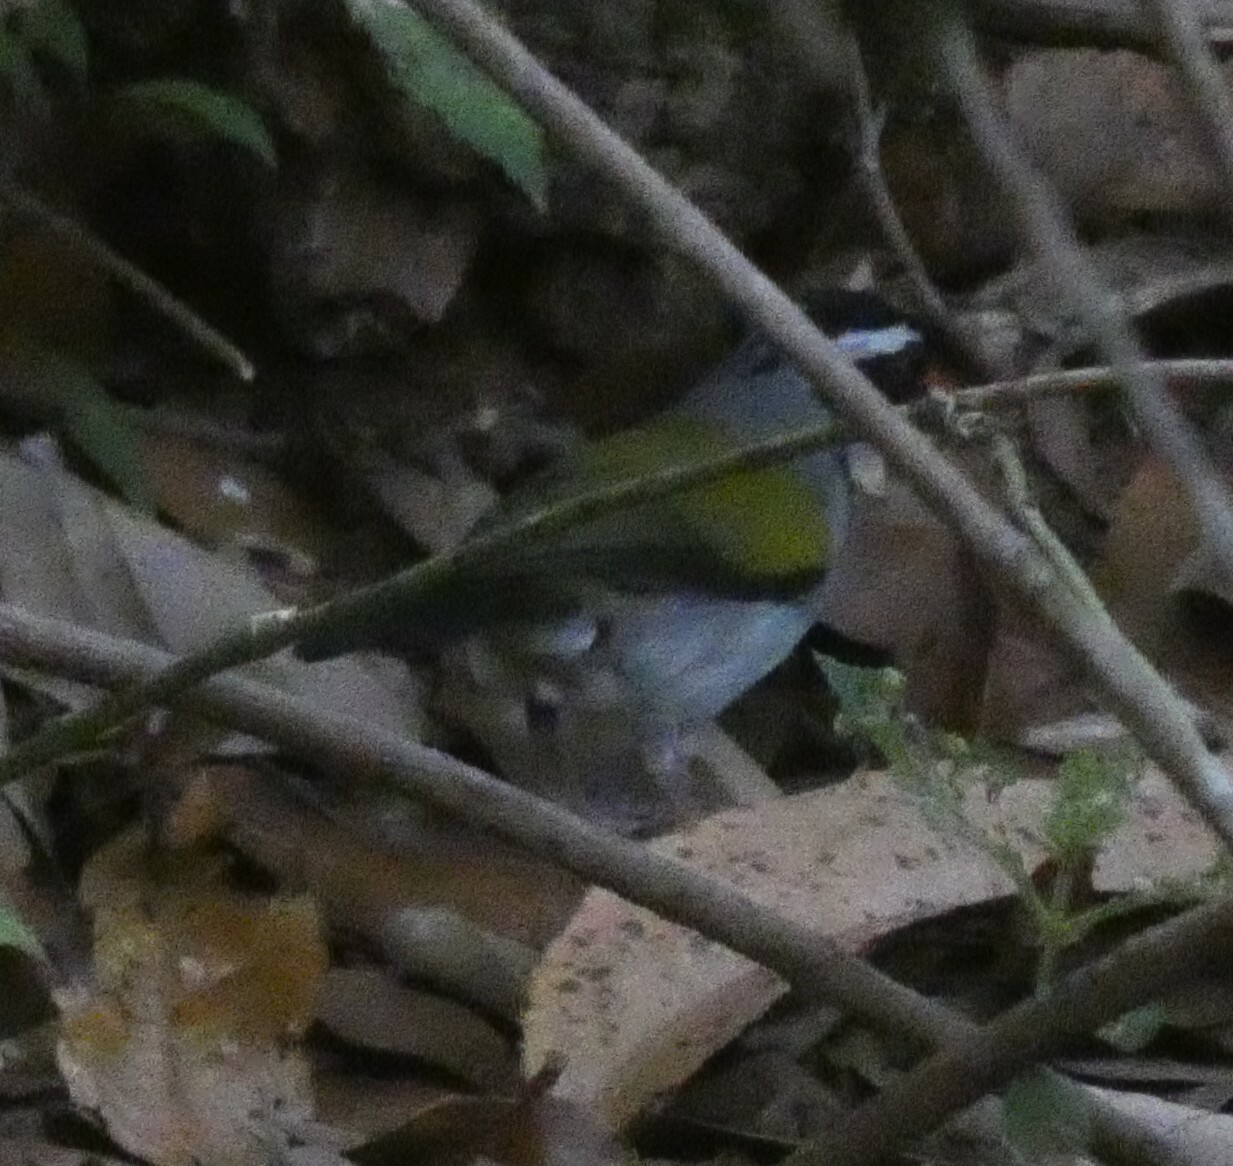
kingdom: Animalia
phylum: Chordata
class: Aves
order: Passeriformes
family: Passerellidae
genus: Arremon
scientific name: Arremon flavirostris
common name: Saffron-billed sparrow
